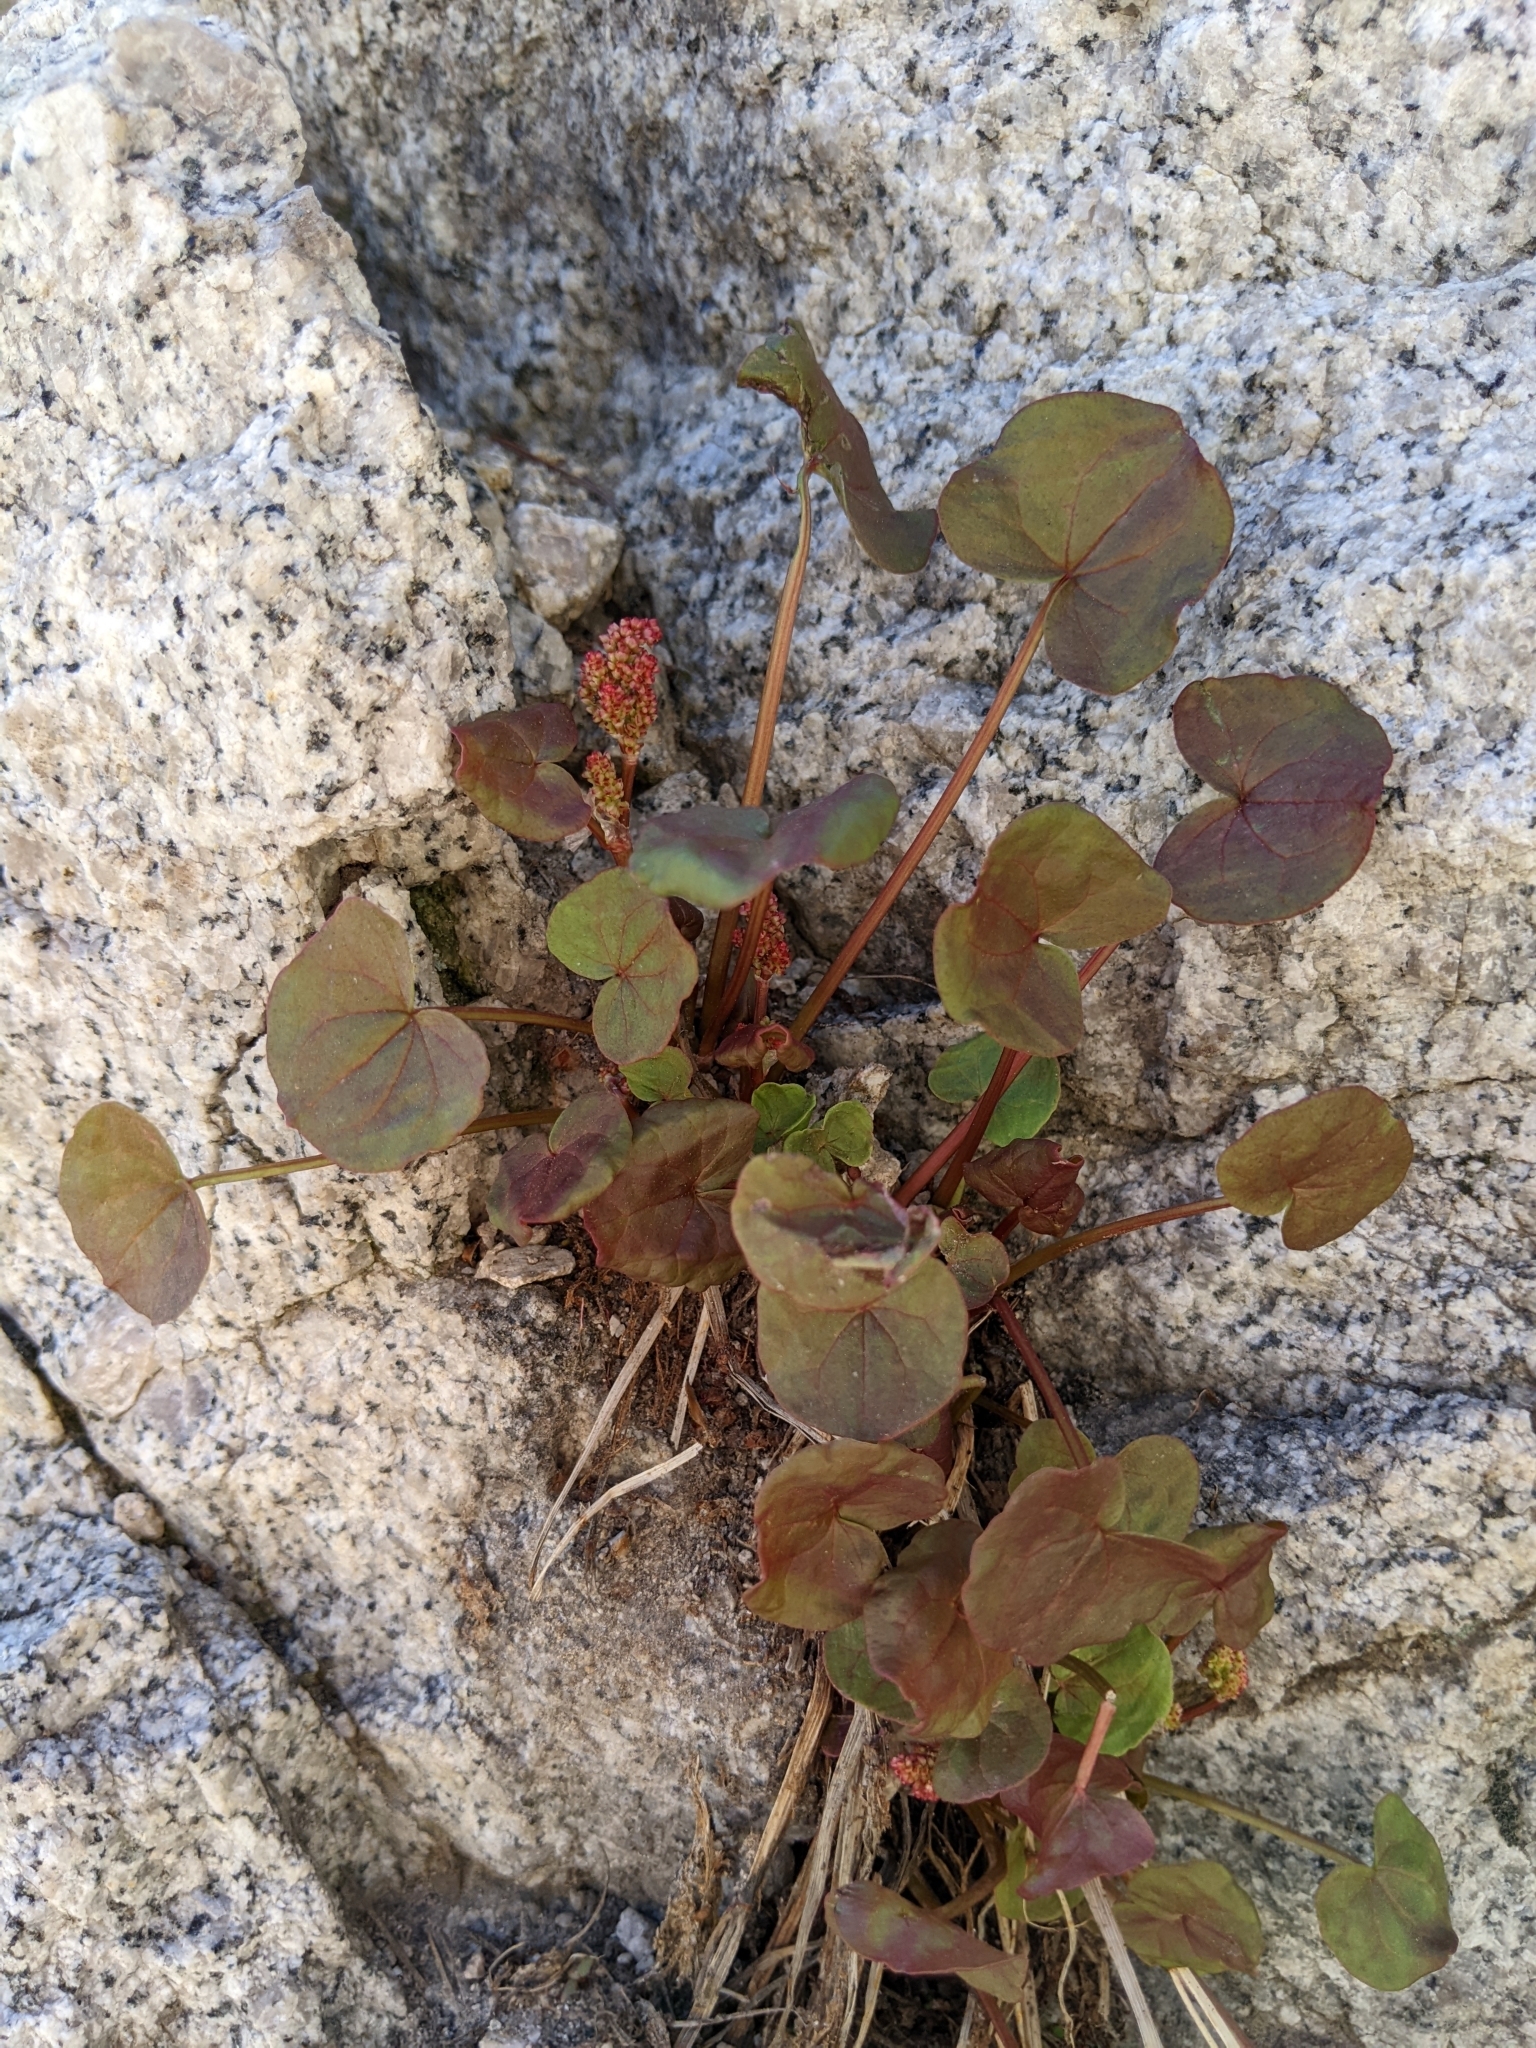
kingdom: Plantae
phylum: Tracheophyta
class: Magnoliopsida
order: Caryophyllales
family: Polygonaceae
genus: Oxyria
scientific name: Oxyria digyna
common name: Alpine mountain-sorrel
